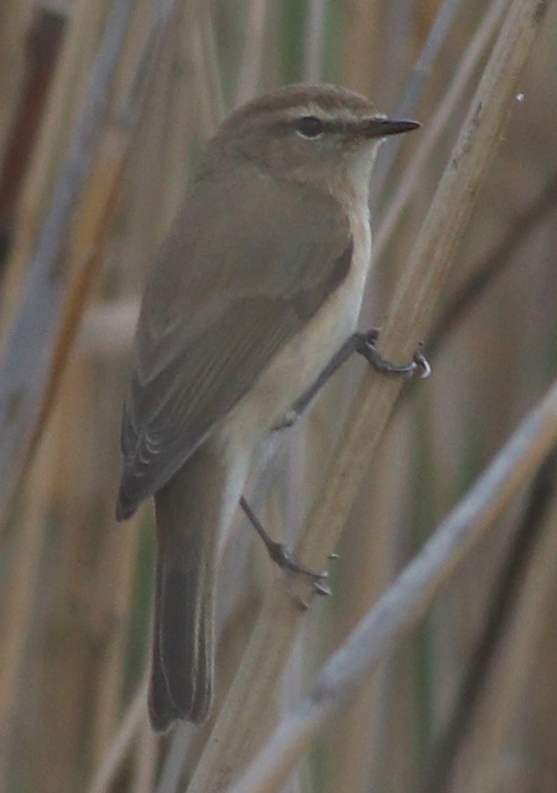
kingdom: Animalia
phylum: Chordata
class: Aves
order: Passeriformes
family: Phylloscopidae
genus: Phylloscopus
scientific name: Phylloscopus sindianus
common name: Mountain chiffchaff
